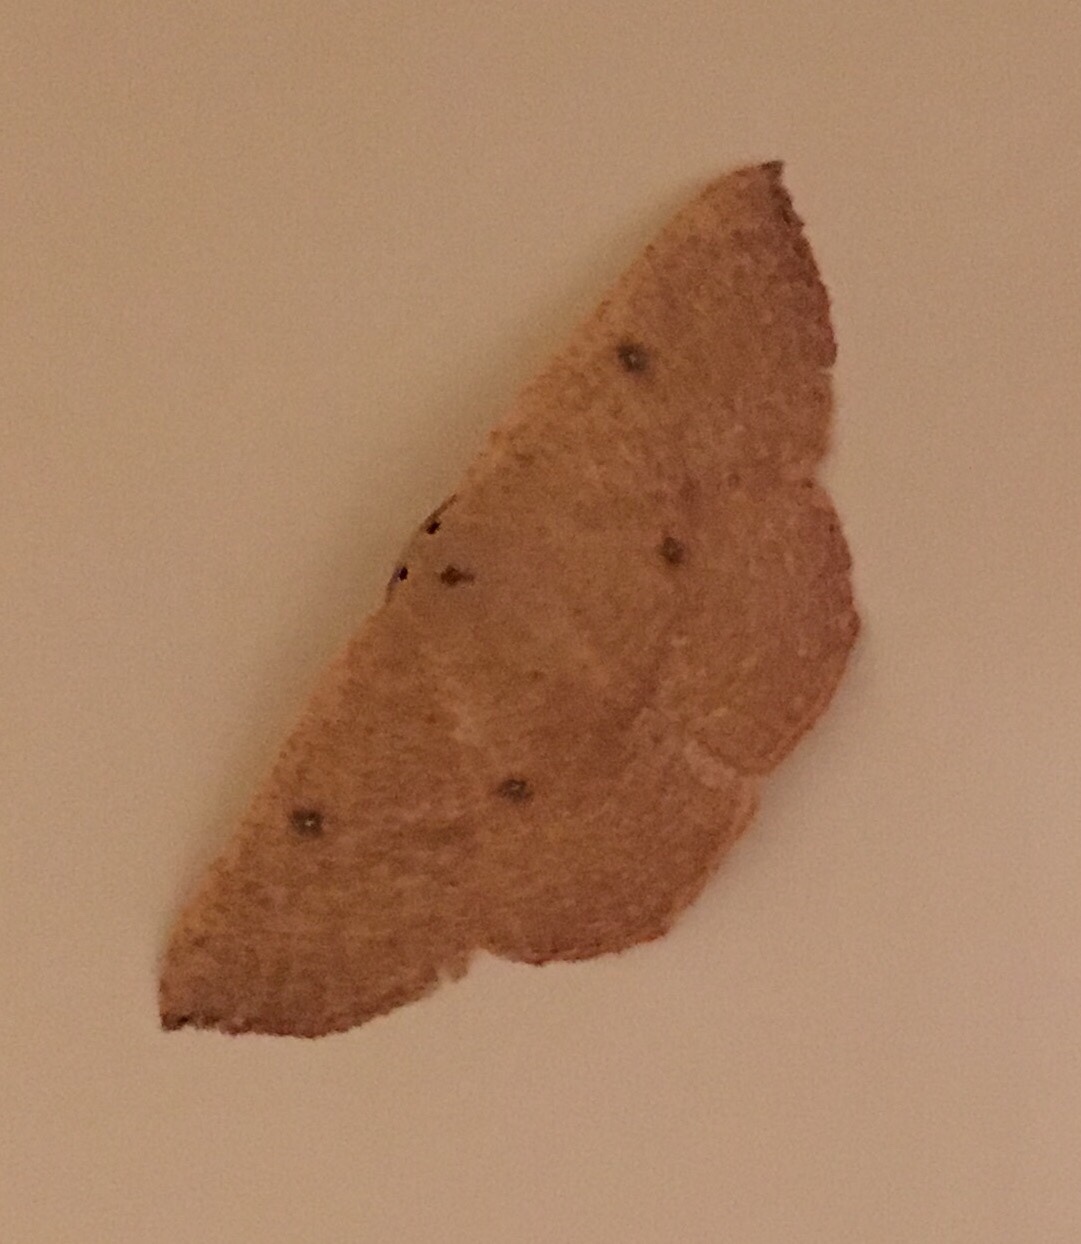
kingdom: Animalia
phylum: Arthropoda
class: Insecta
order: Lepidoptera
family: Geometridae
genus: Cyclophora
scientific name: Cyclophora puppillaria
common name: Blair's mocha
